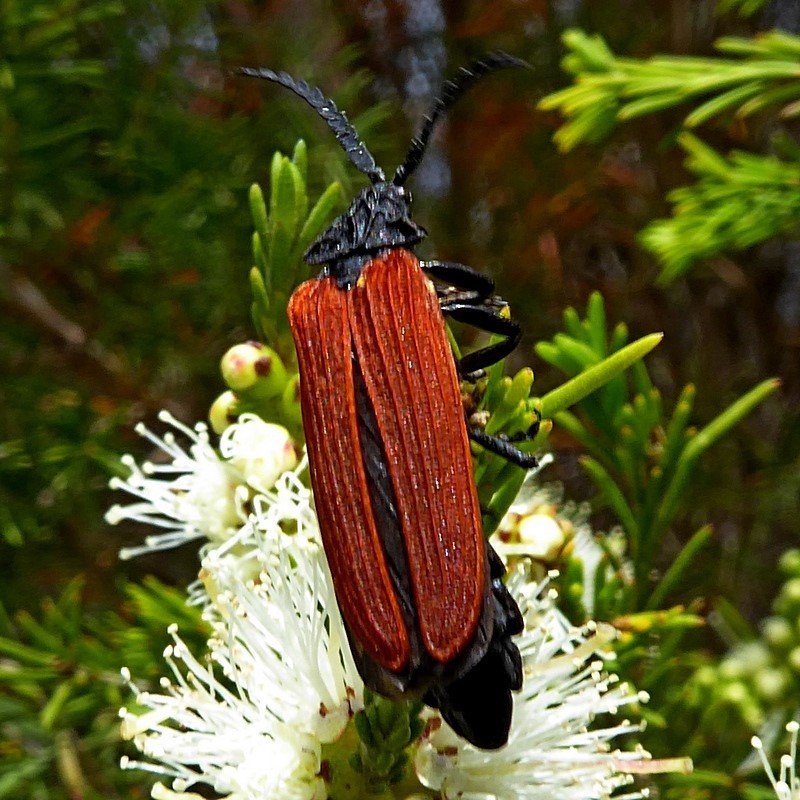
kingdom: Animalia
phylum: Arthropoda
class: Insecta
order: Coleoptera
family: Lycidae
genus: Porrostoma
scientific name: Porrostoma rhipidium
